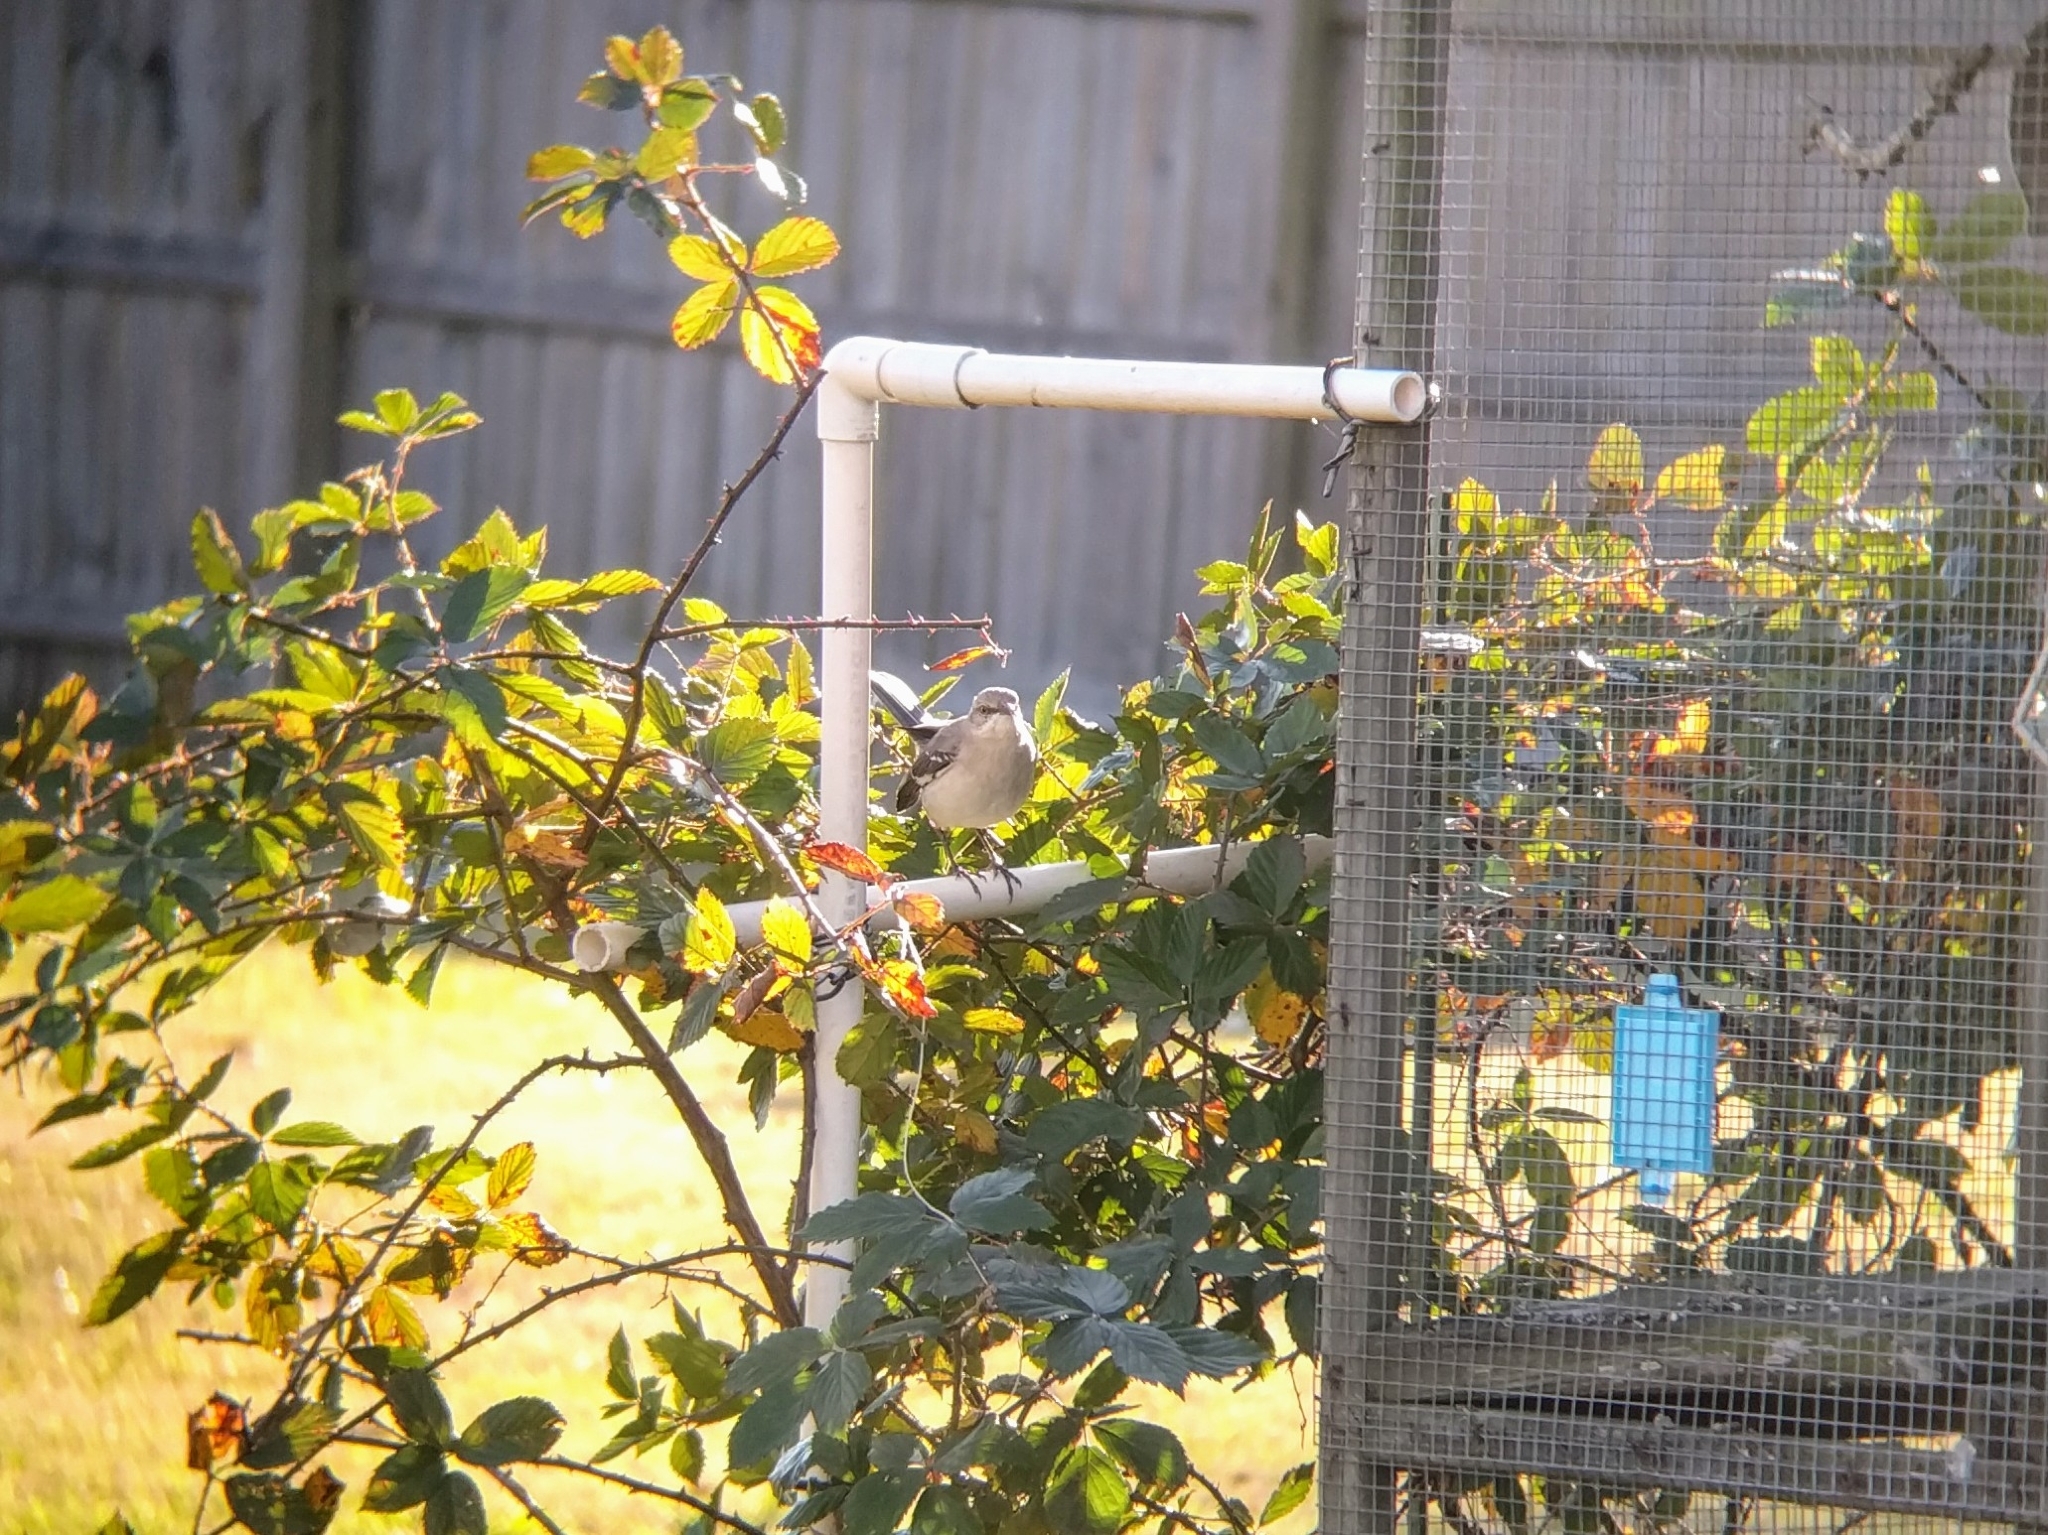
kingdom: Animalia
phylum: Chordata
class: Aves
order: Passeriformes
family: Mimidae
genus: Mimus
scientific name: Mimus polyglottos
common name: Northern mockingbird
